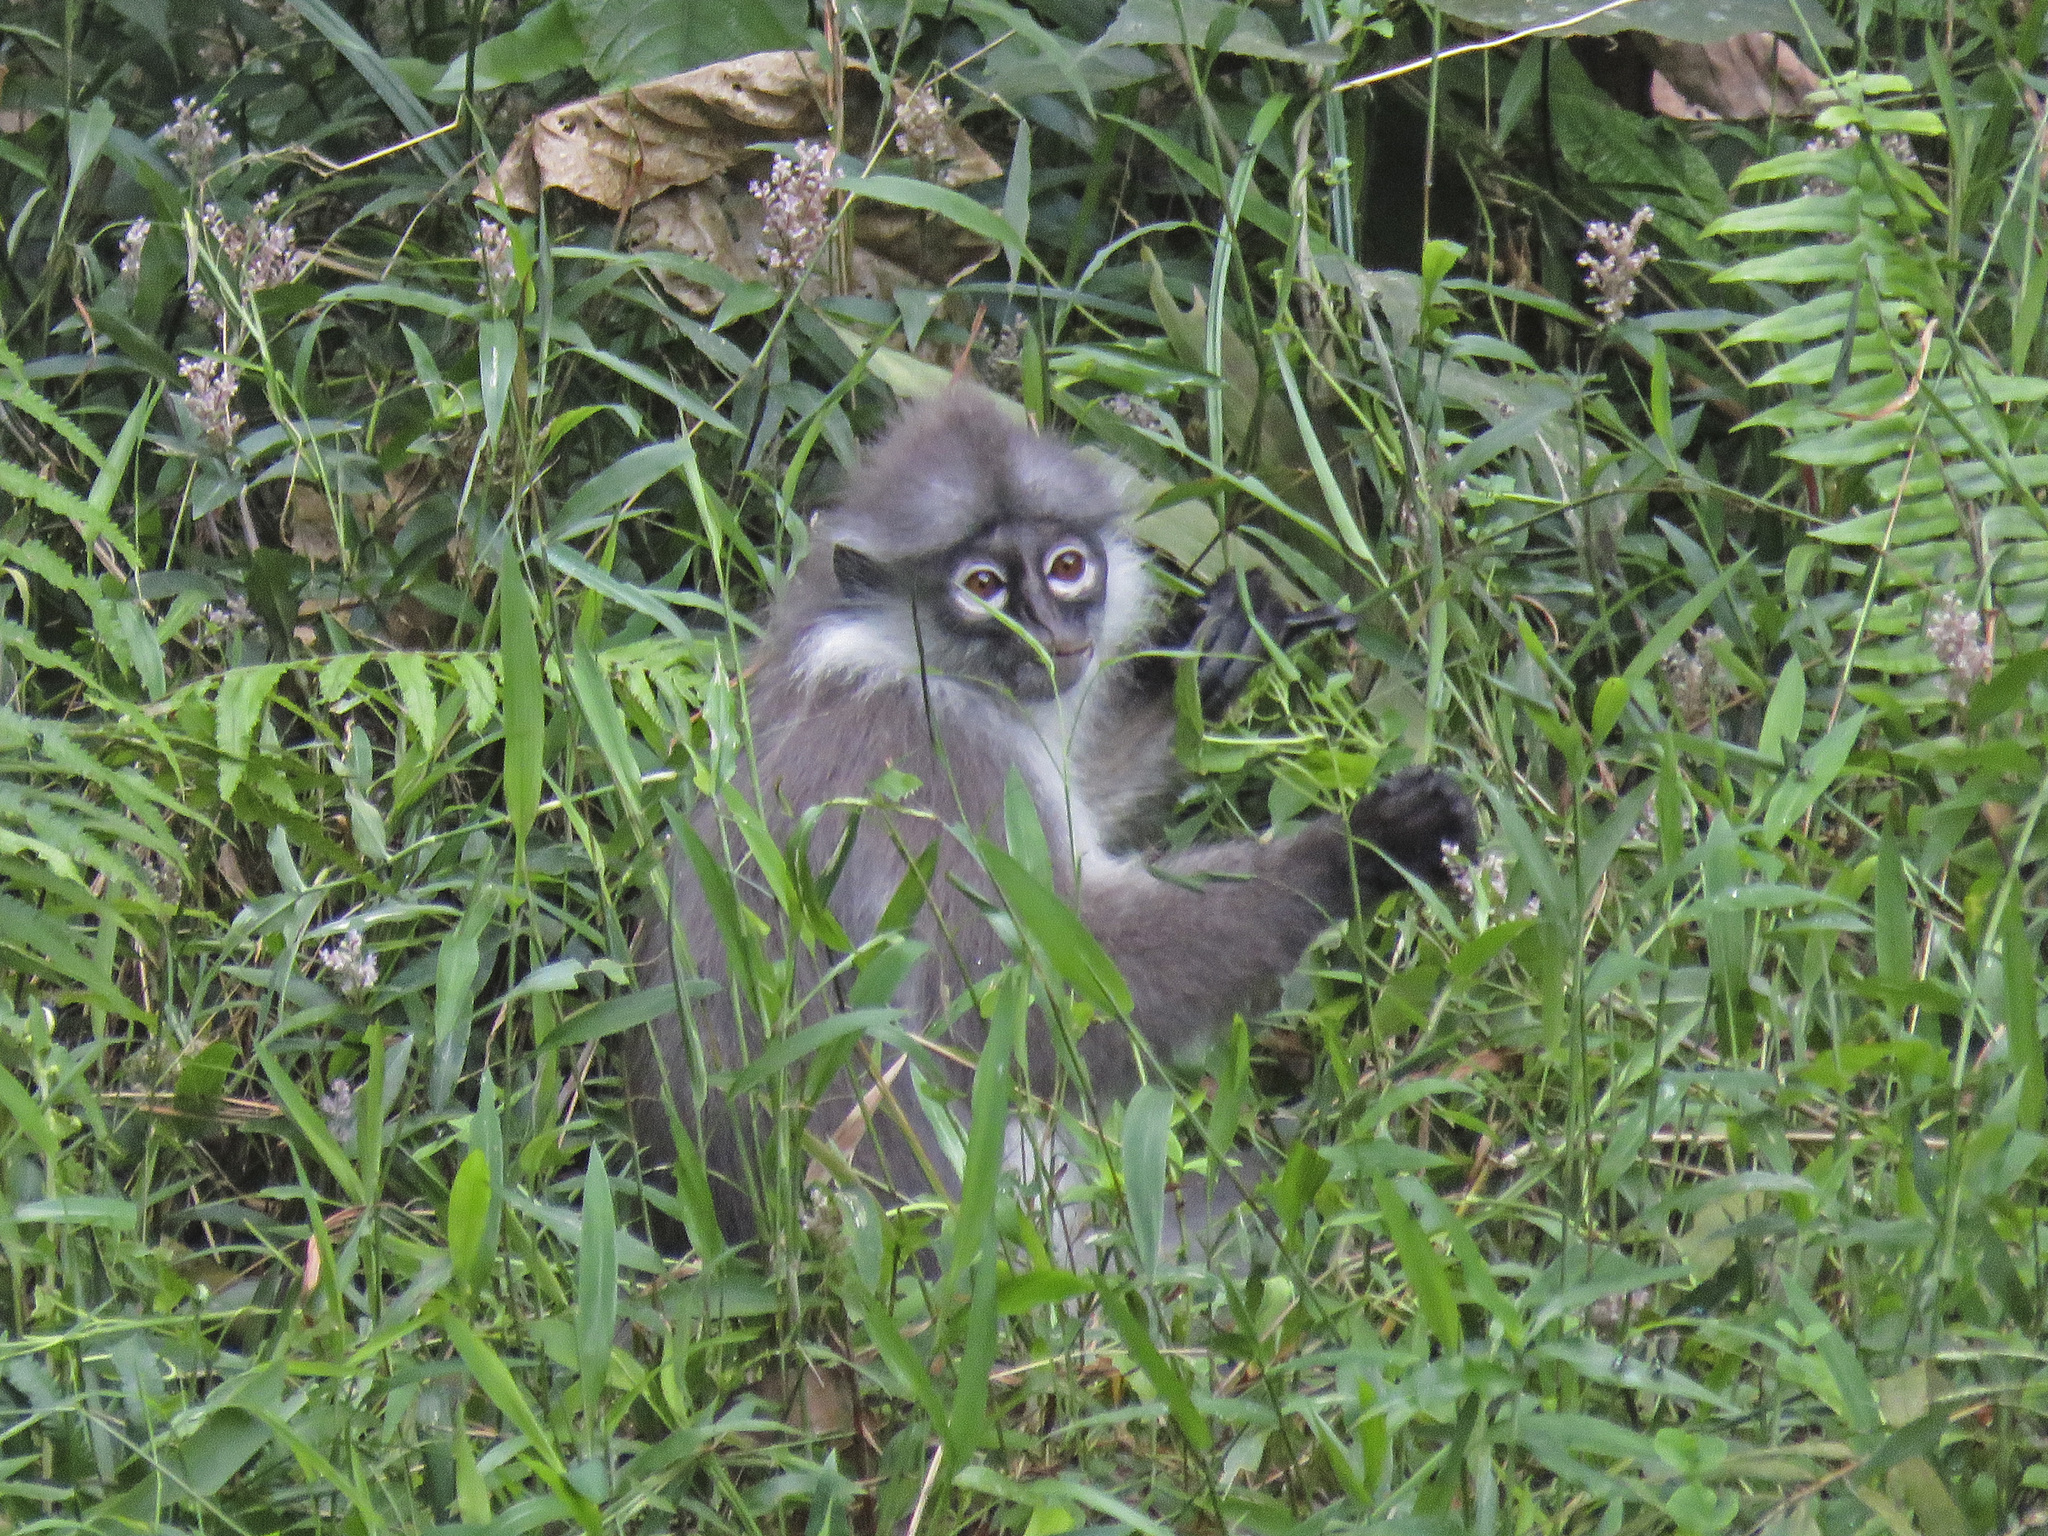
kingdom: Animalia
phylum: Chordata
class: Mammalia
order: Primates
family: Cercopithecidae
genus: Presbytis
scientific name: Presbytis siamensis
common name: White-thighed surili
